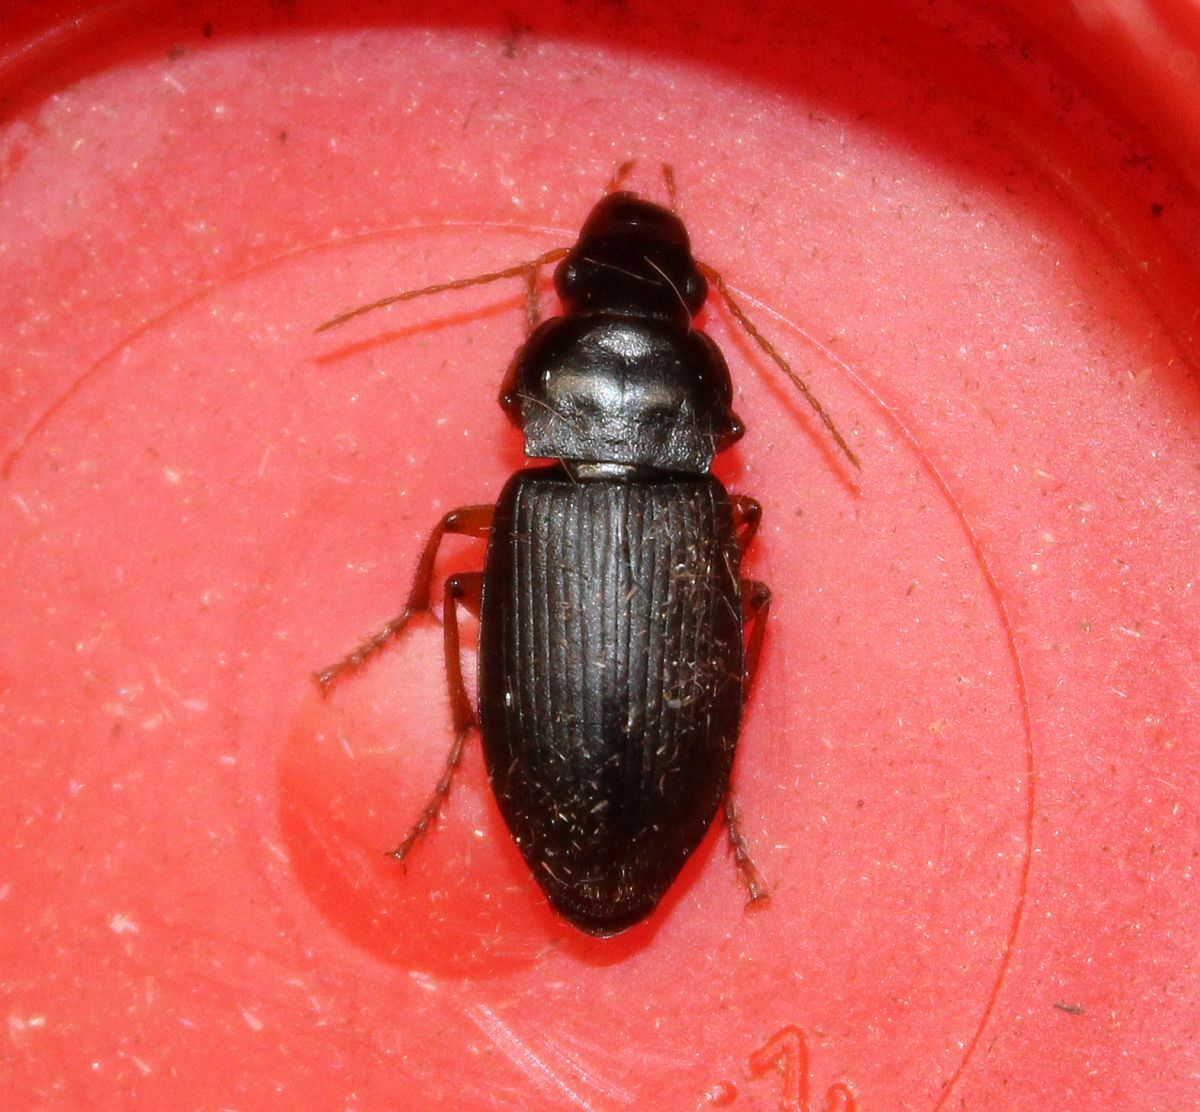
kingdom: Animalia
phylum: Arthropoda
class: Insecta
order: Coleoptera
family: Carabidae
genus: Harpalus
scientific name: Harpalus rufipes
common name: Strawberry harp ground beetle
